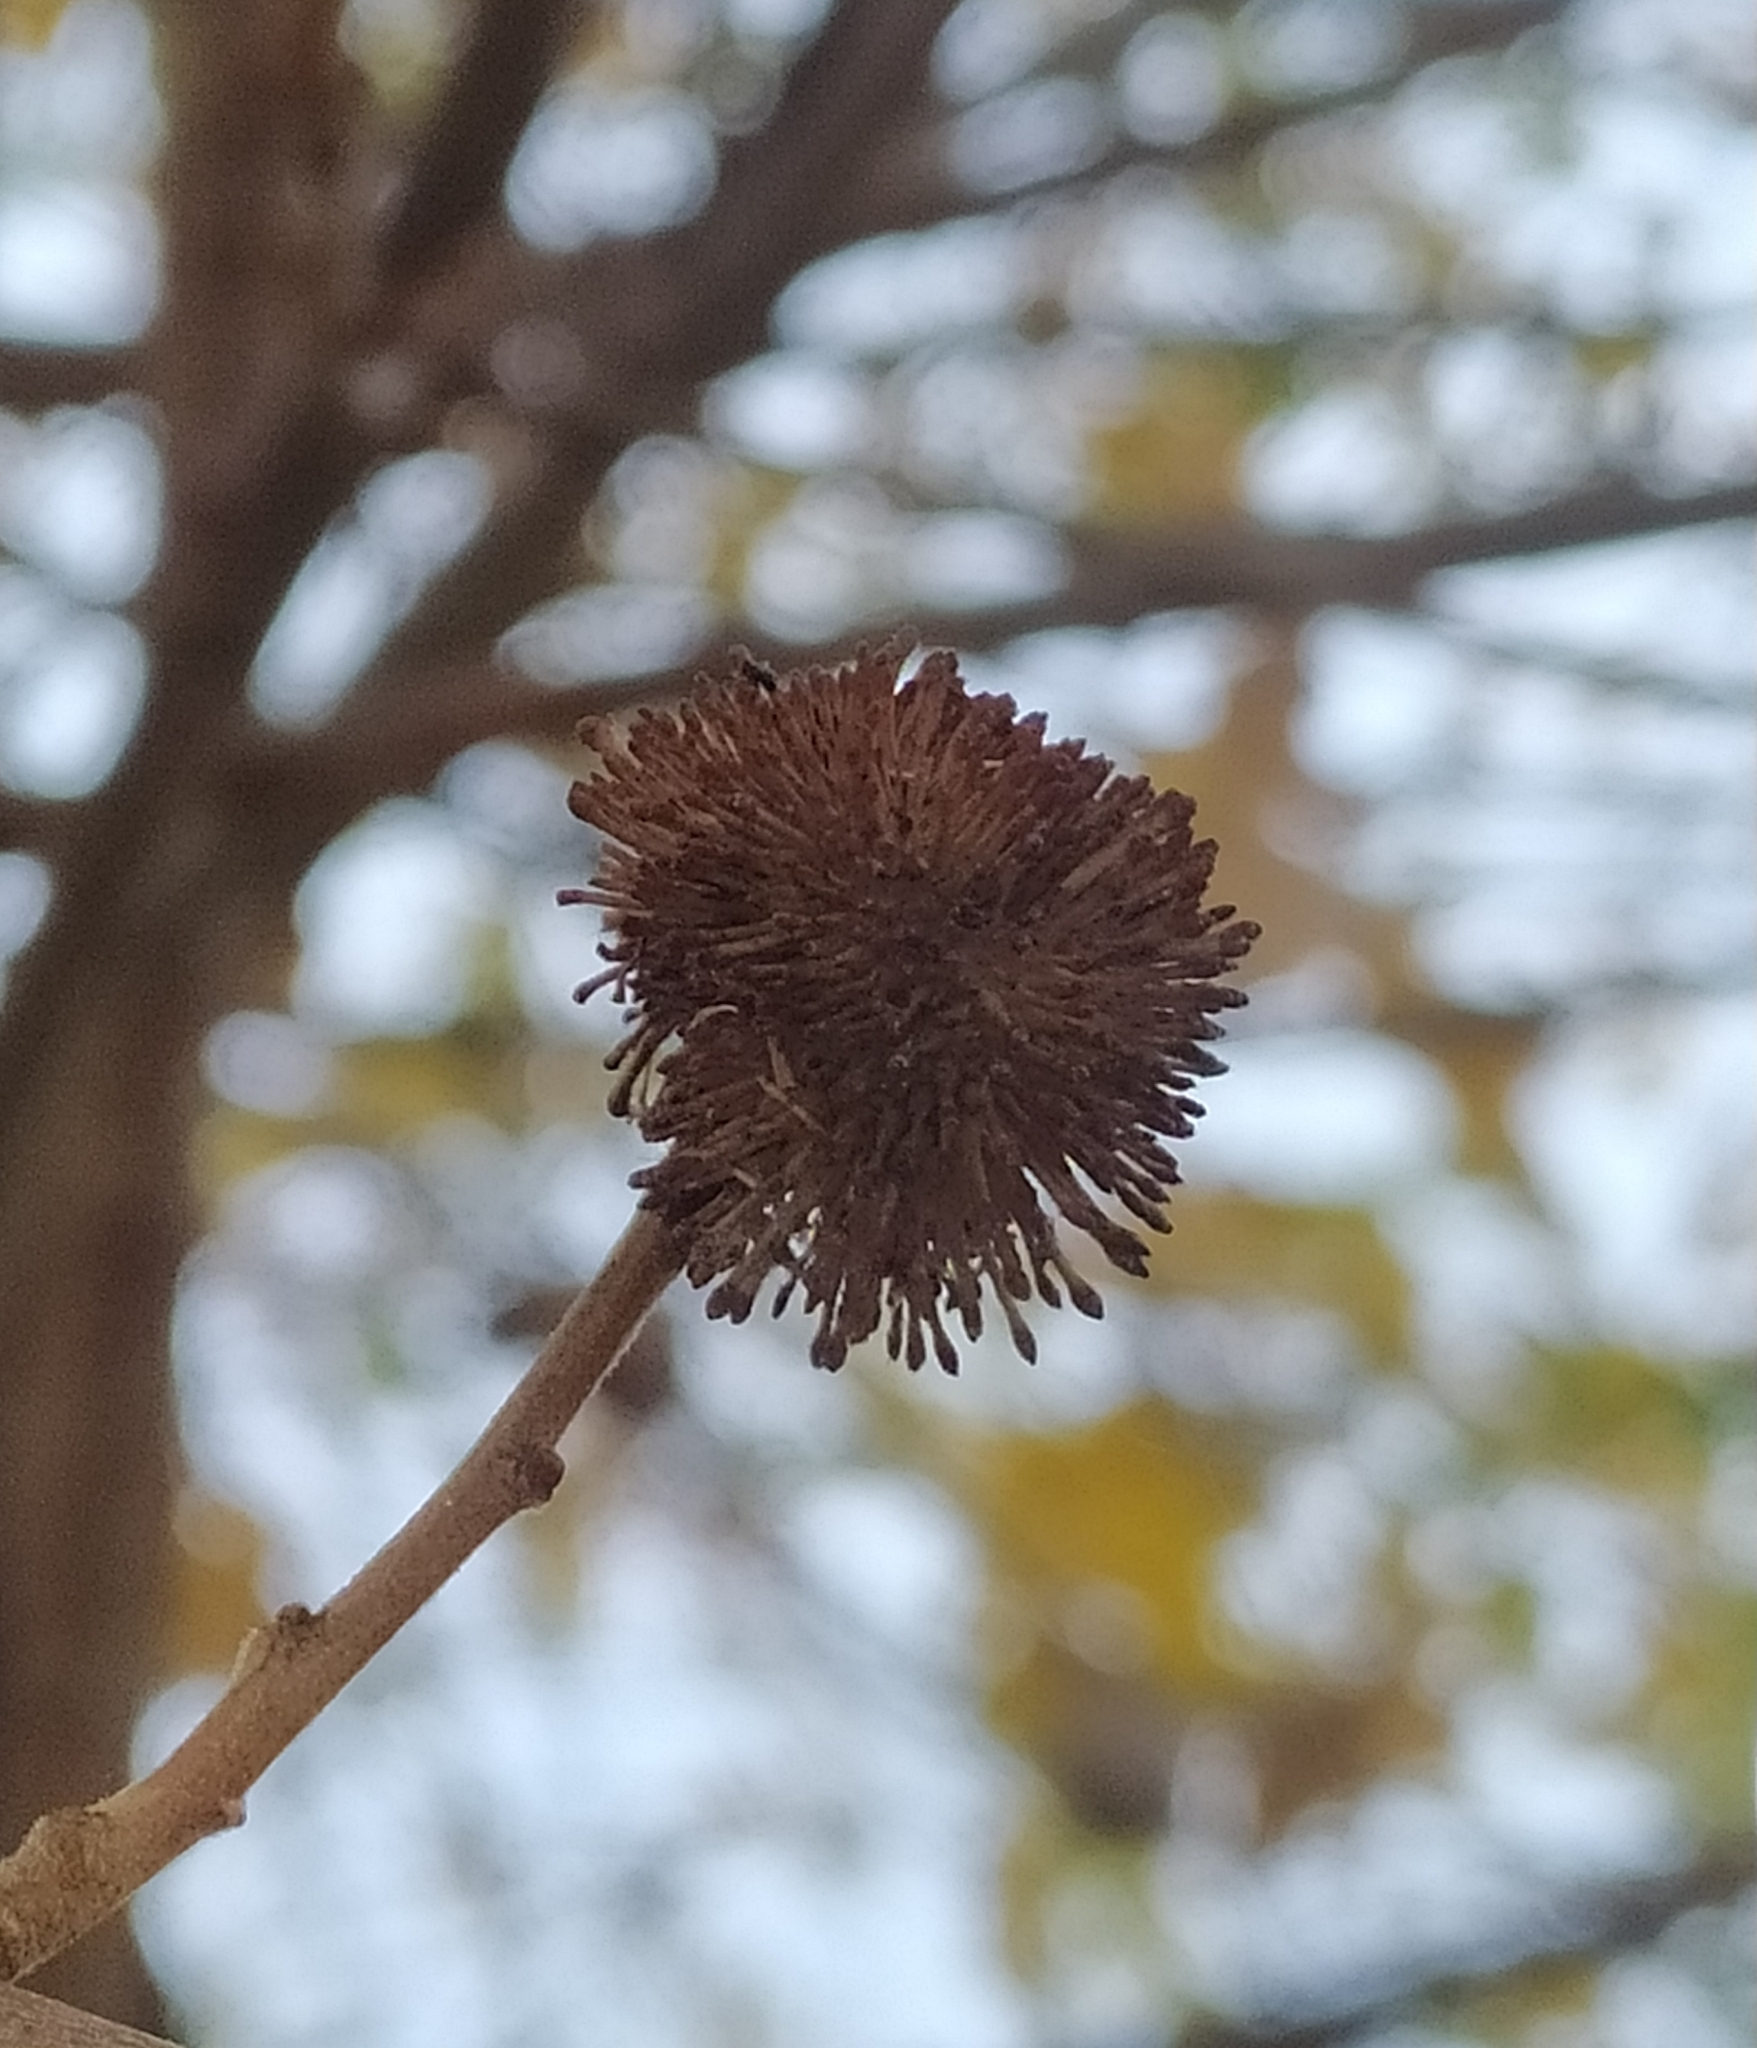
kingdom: Animalia
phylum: Arthropoda
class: Insecta
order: Hymenoptera
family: Cynipidae
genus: Andricus
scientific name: Andricus lucidus
